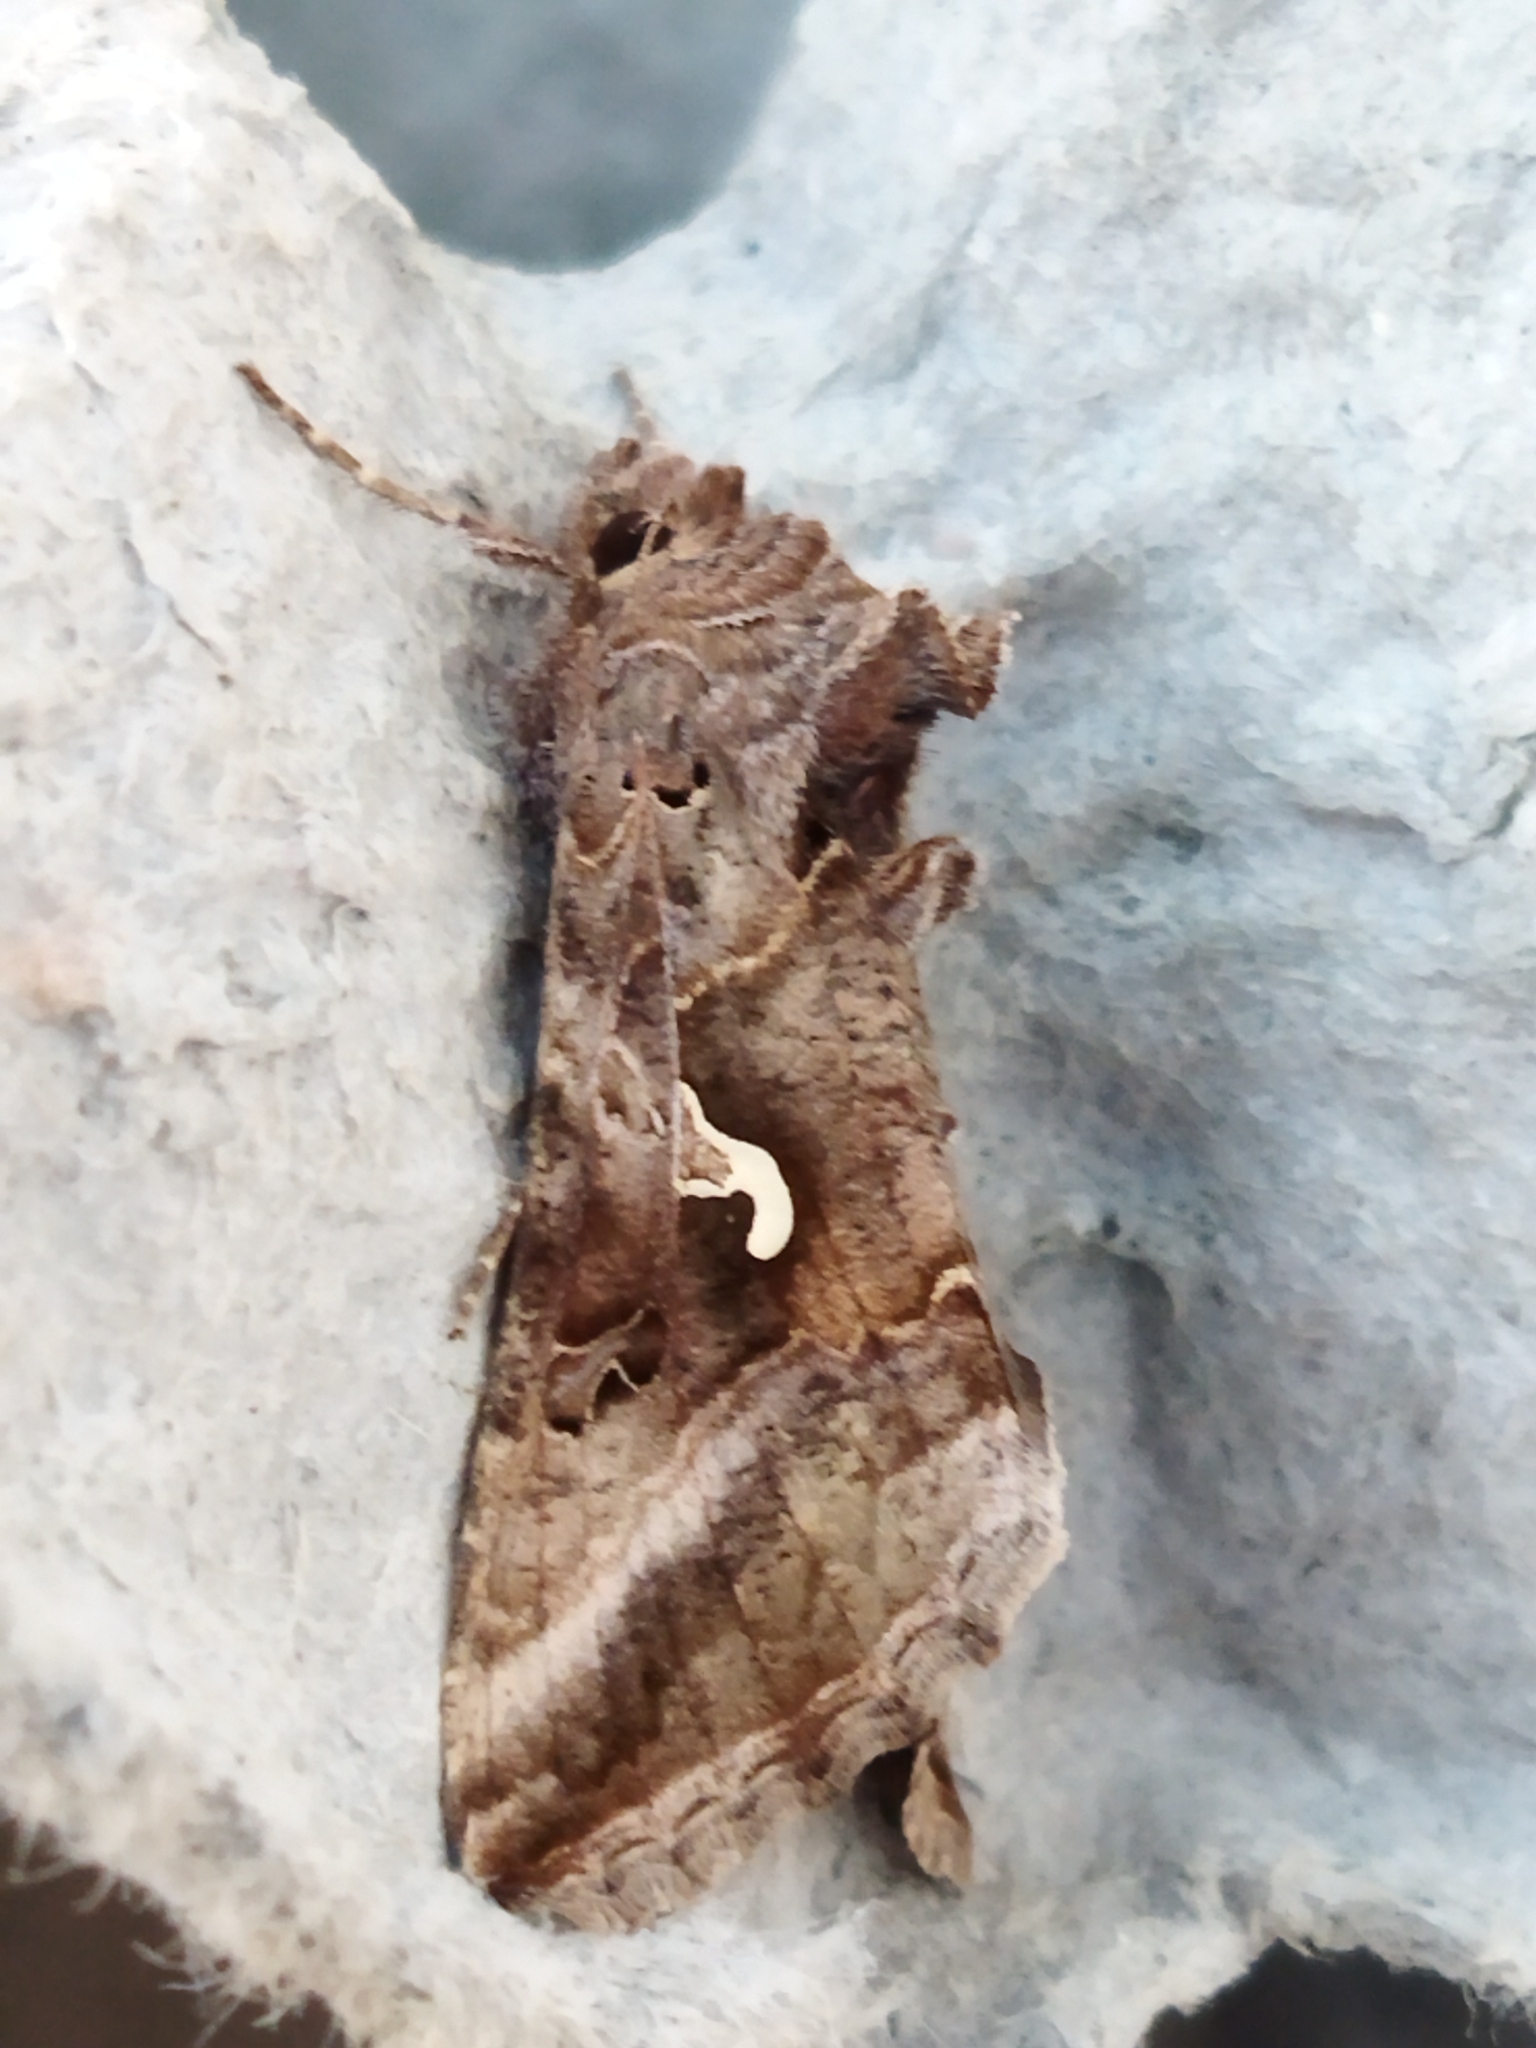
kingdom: Animalia
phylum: Arthropoda
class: Insecta
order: Lepidoptera
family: Noctuidae
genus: Autographa
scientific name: Autographa gamma
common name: Silver y
